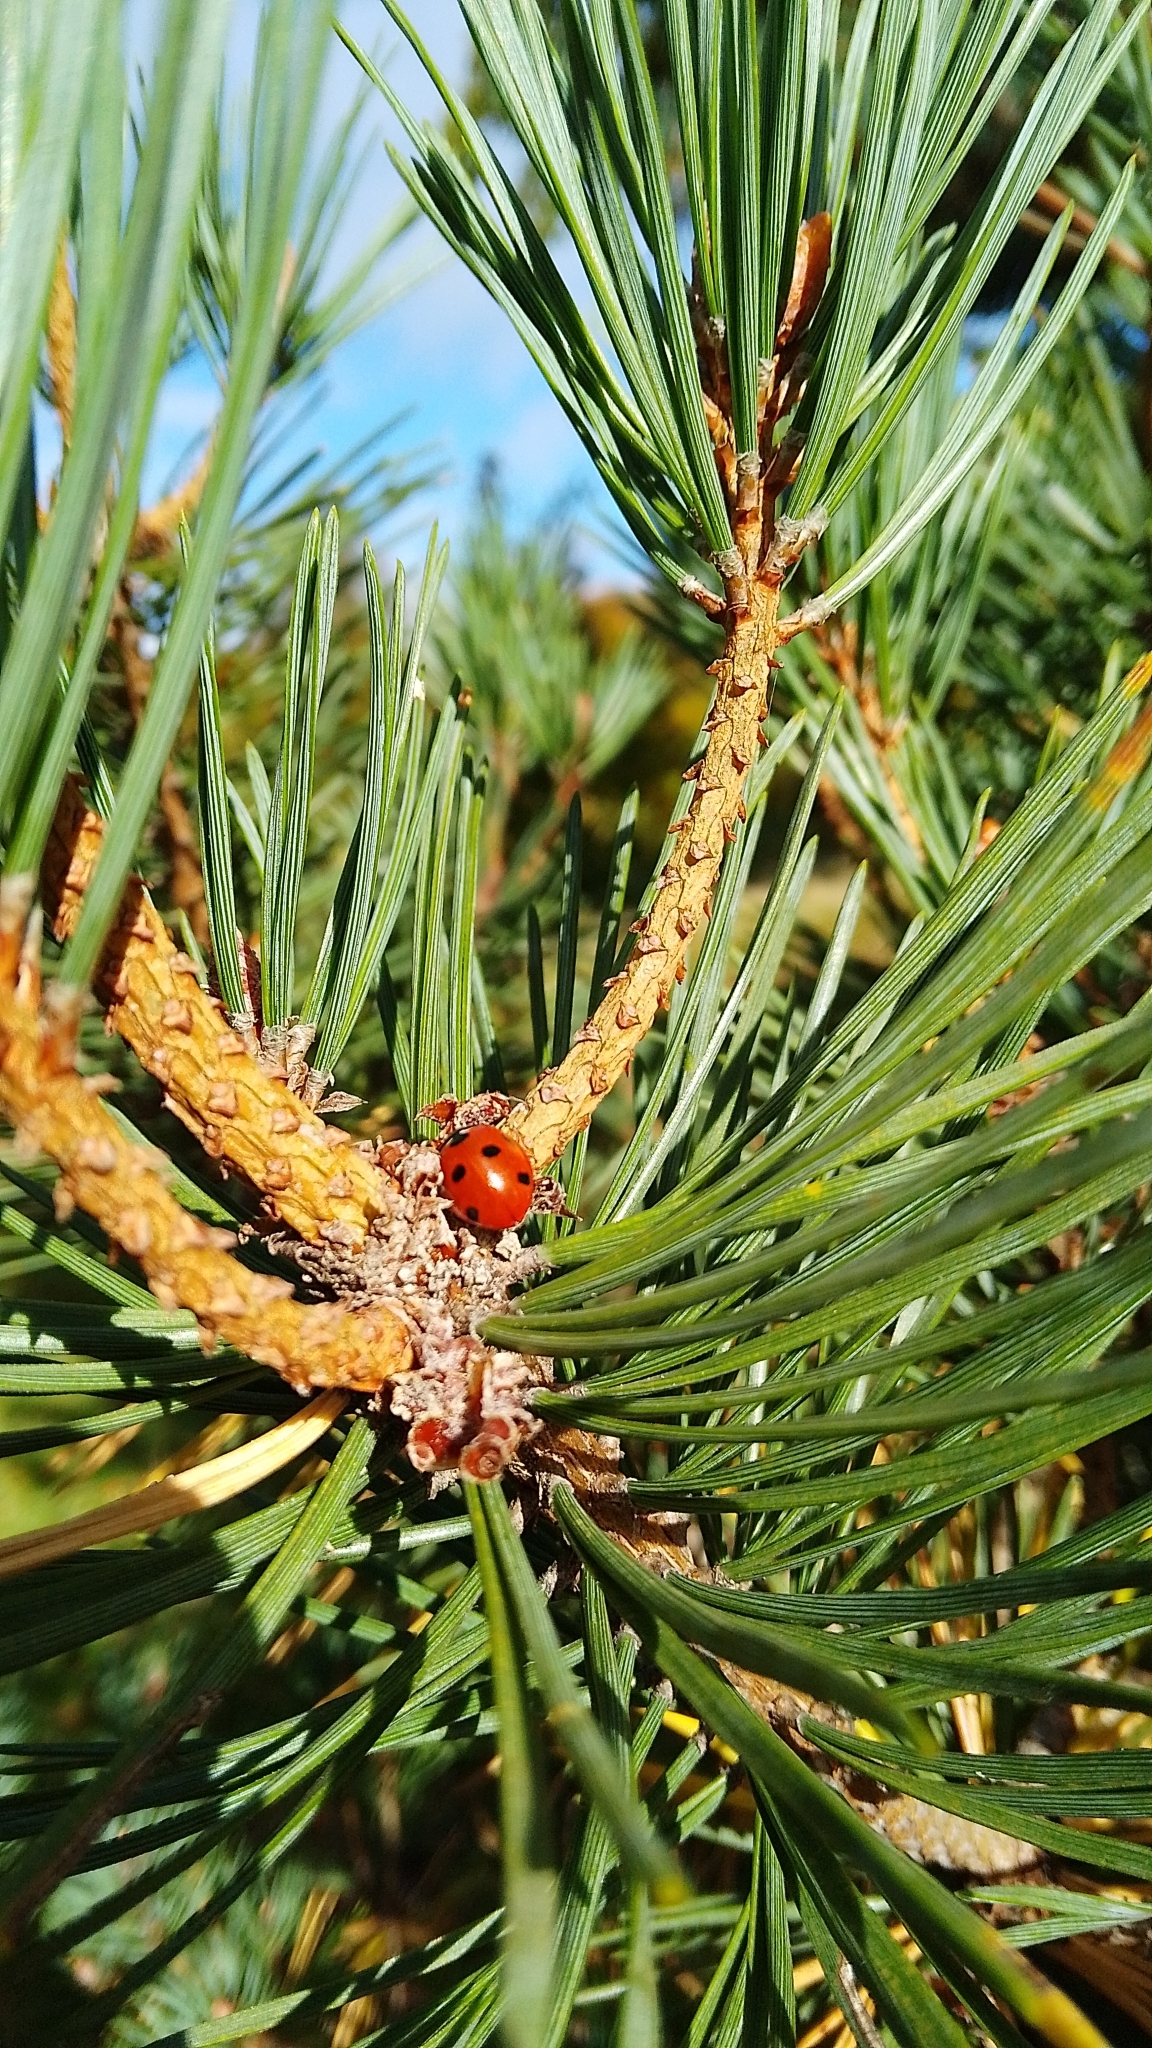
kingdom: Animalia
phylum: Arthropoda
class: Insecta
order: Coleoptera
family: Coccinellidae
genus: Coccinella
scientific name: Coccinella septempunctata
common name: Sevenspotted lady beetle
